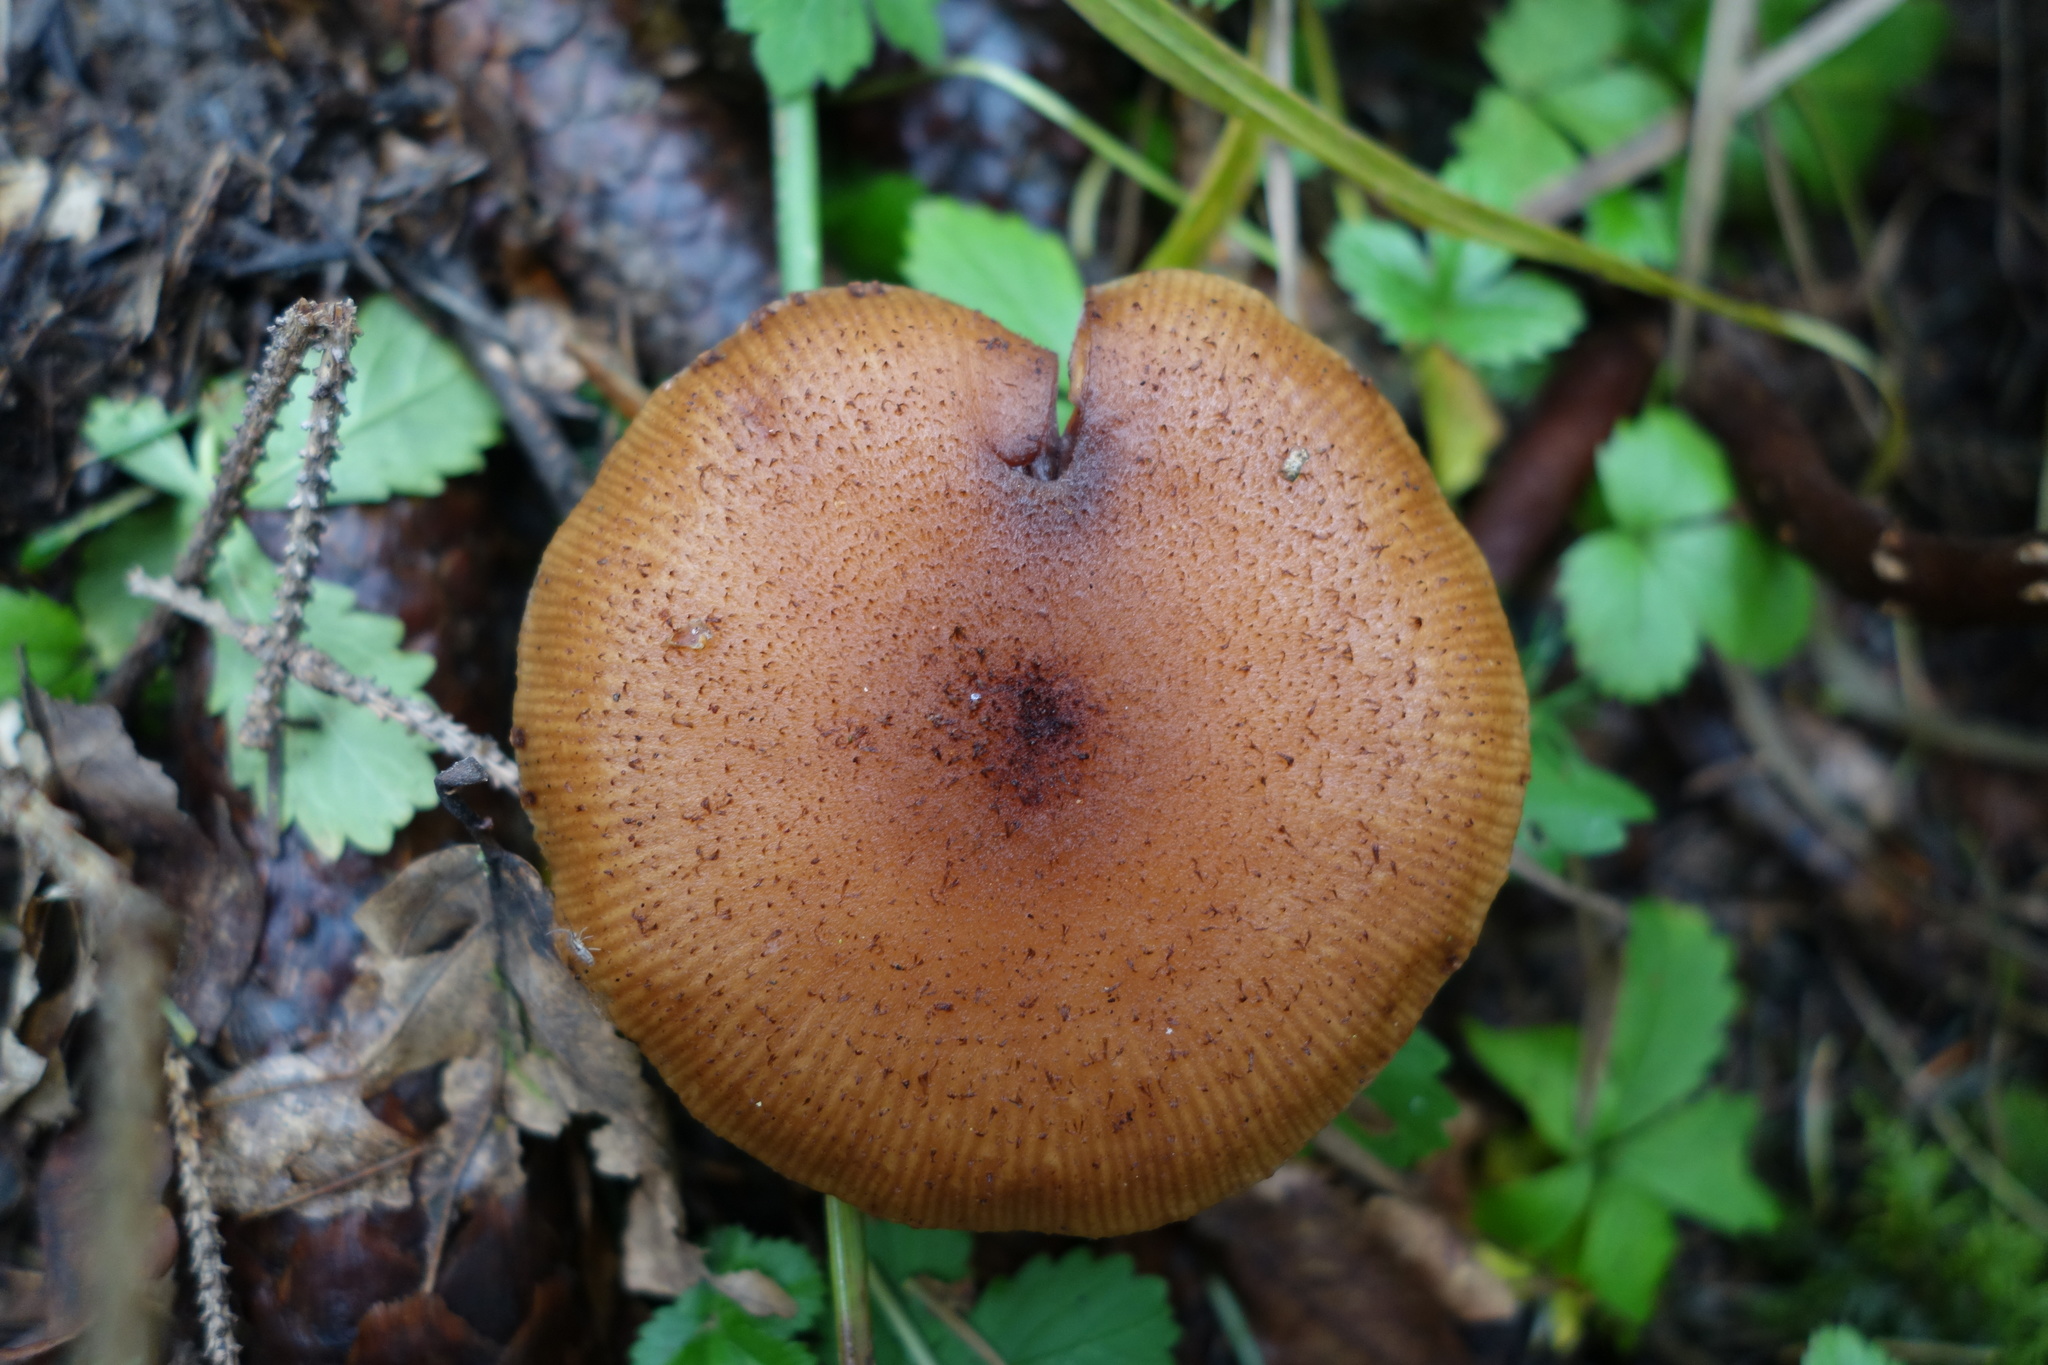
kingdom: Fungi
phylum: Basidiomycota
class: Agaricomycetes
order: Agaricales
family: Physalacriaceae
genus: Armillaria
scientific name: Armillaria mellea
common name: Honey fungus
